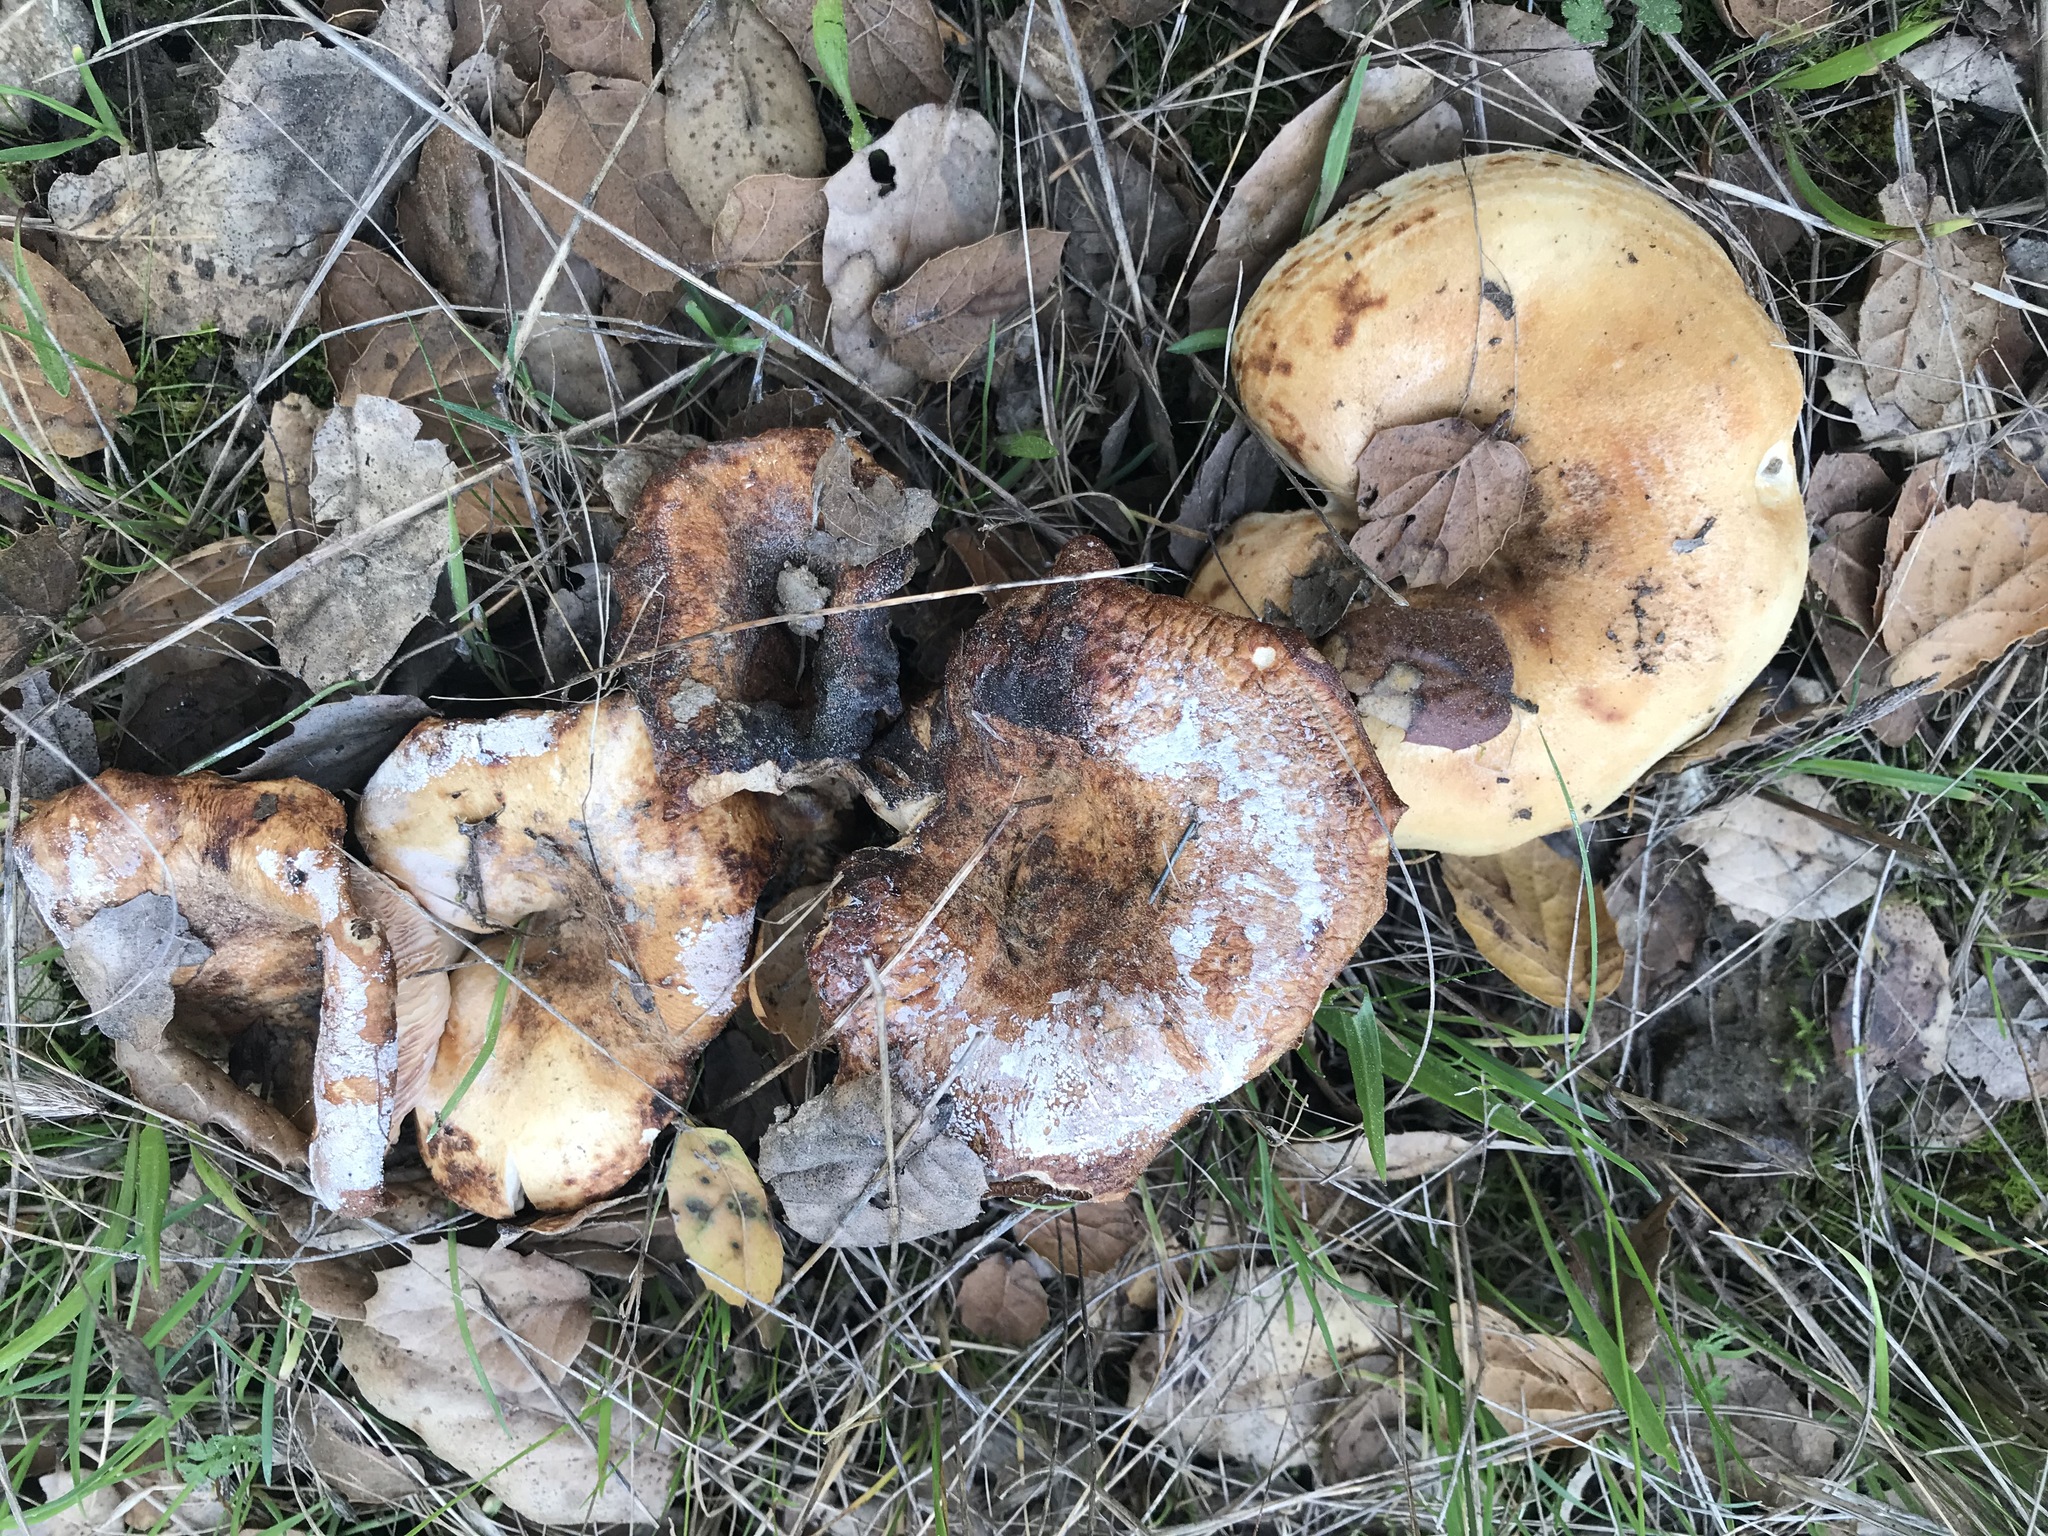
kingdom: Fungi
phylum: Basidiomycota
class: Agaricomycetes
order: Russulales
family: Russulaceae
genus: Lactarius
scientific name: Lactarius alnicola
